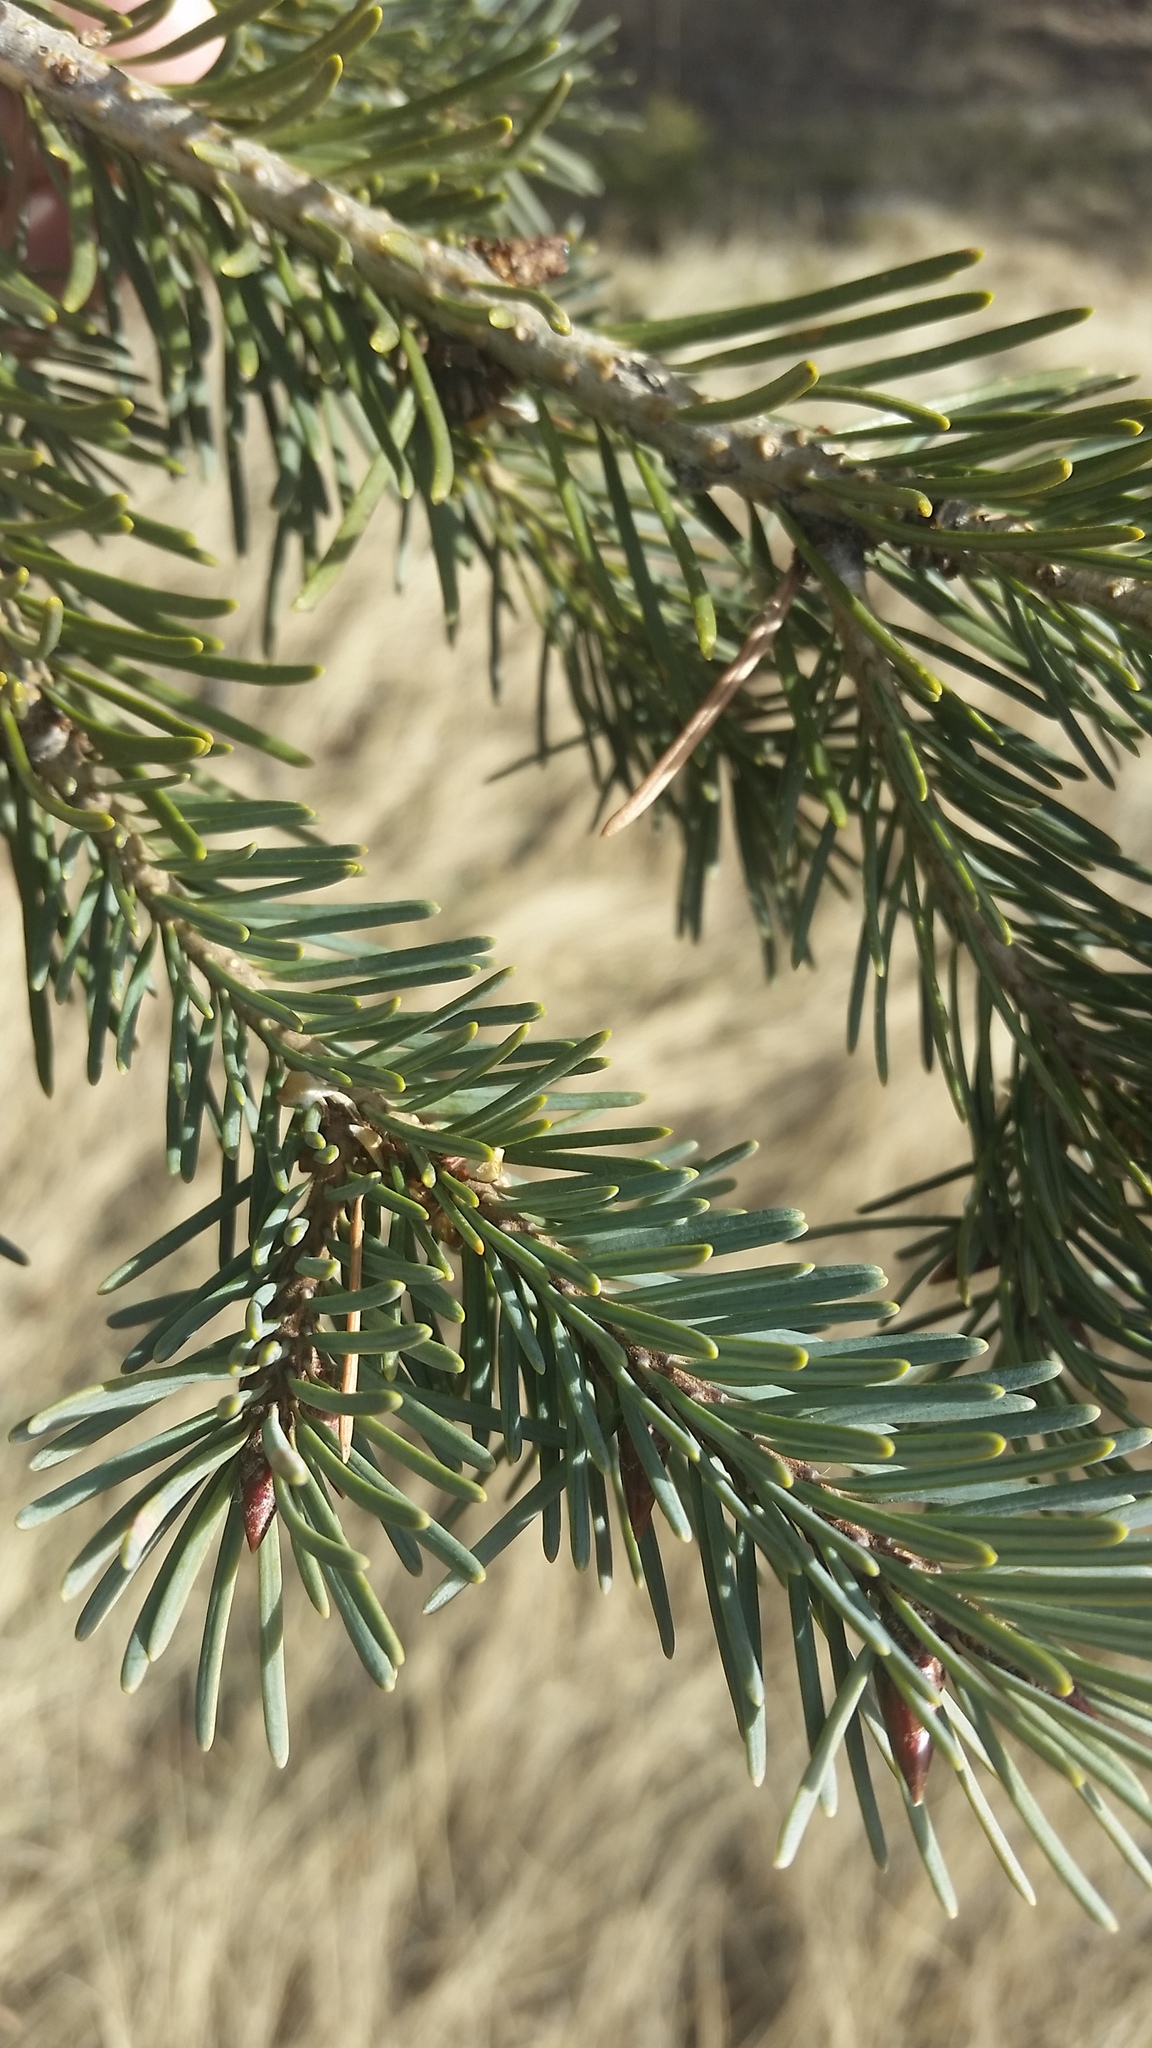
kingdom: Plantae
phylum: Tracheophyta
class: Pinopsida
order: Pinales
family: Pinaceae
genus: Pseudotsuga
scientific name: Pseudotsuga menziesii
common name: Douglas fir
